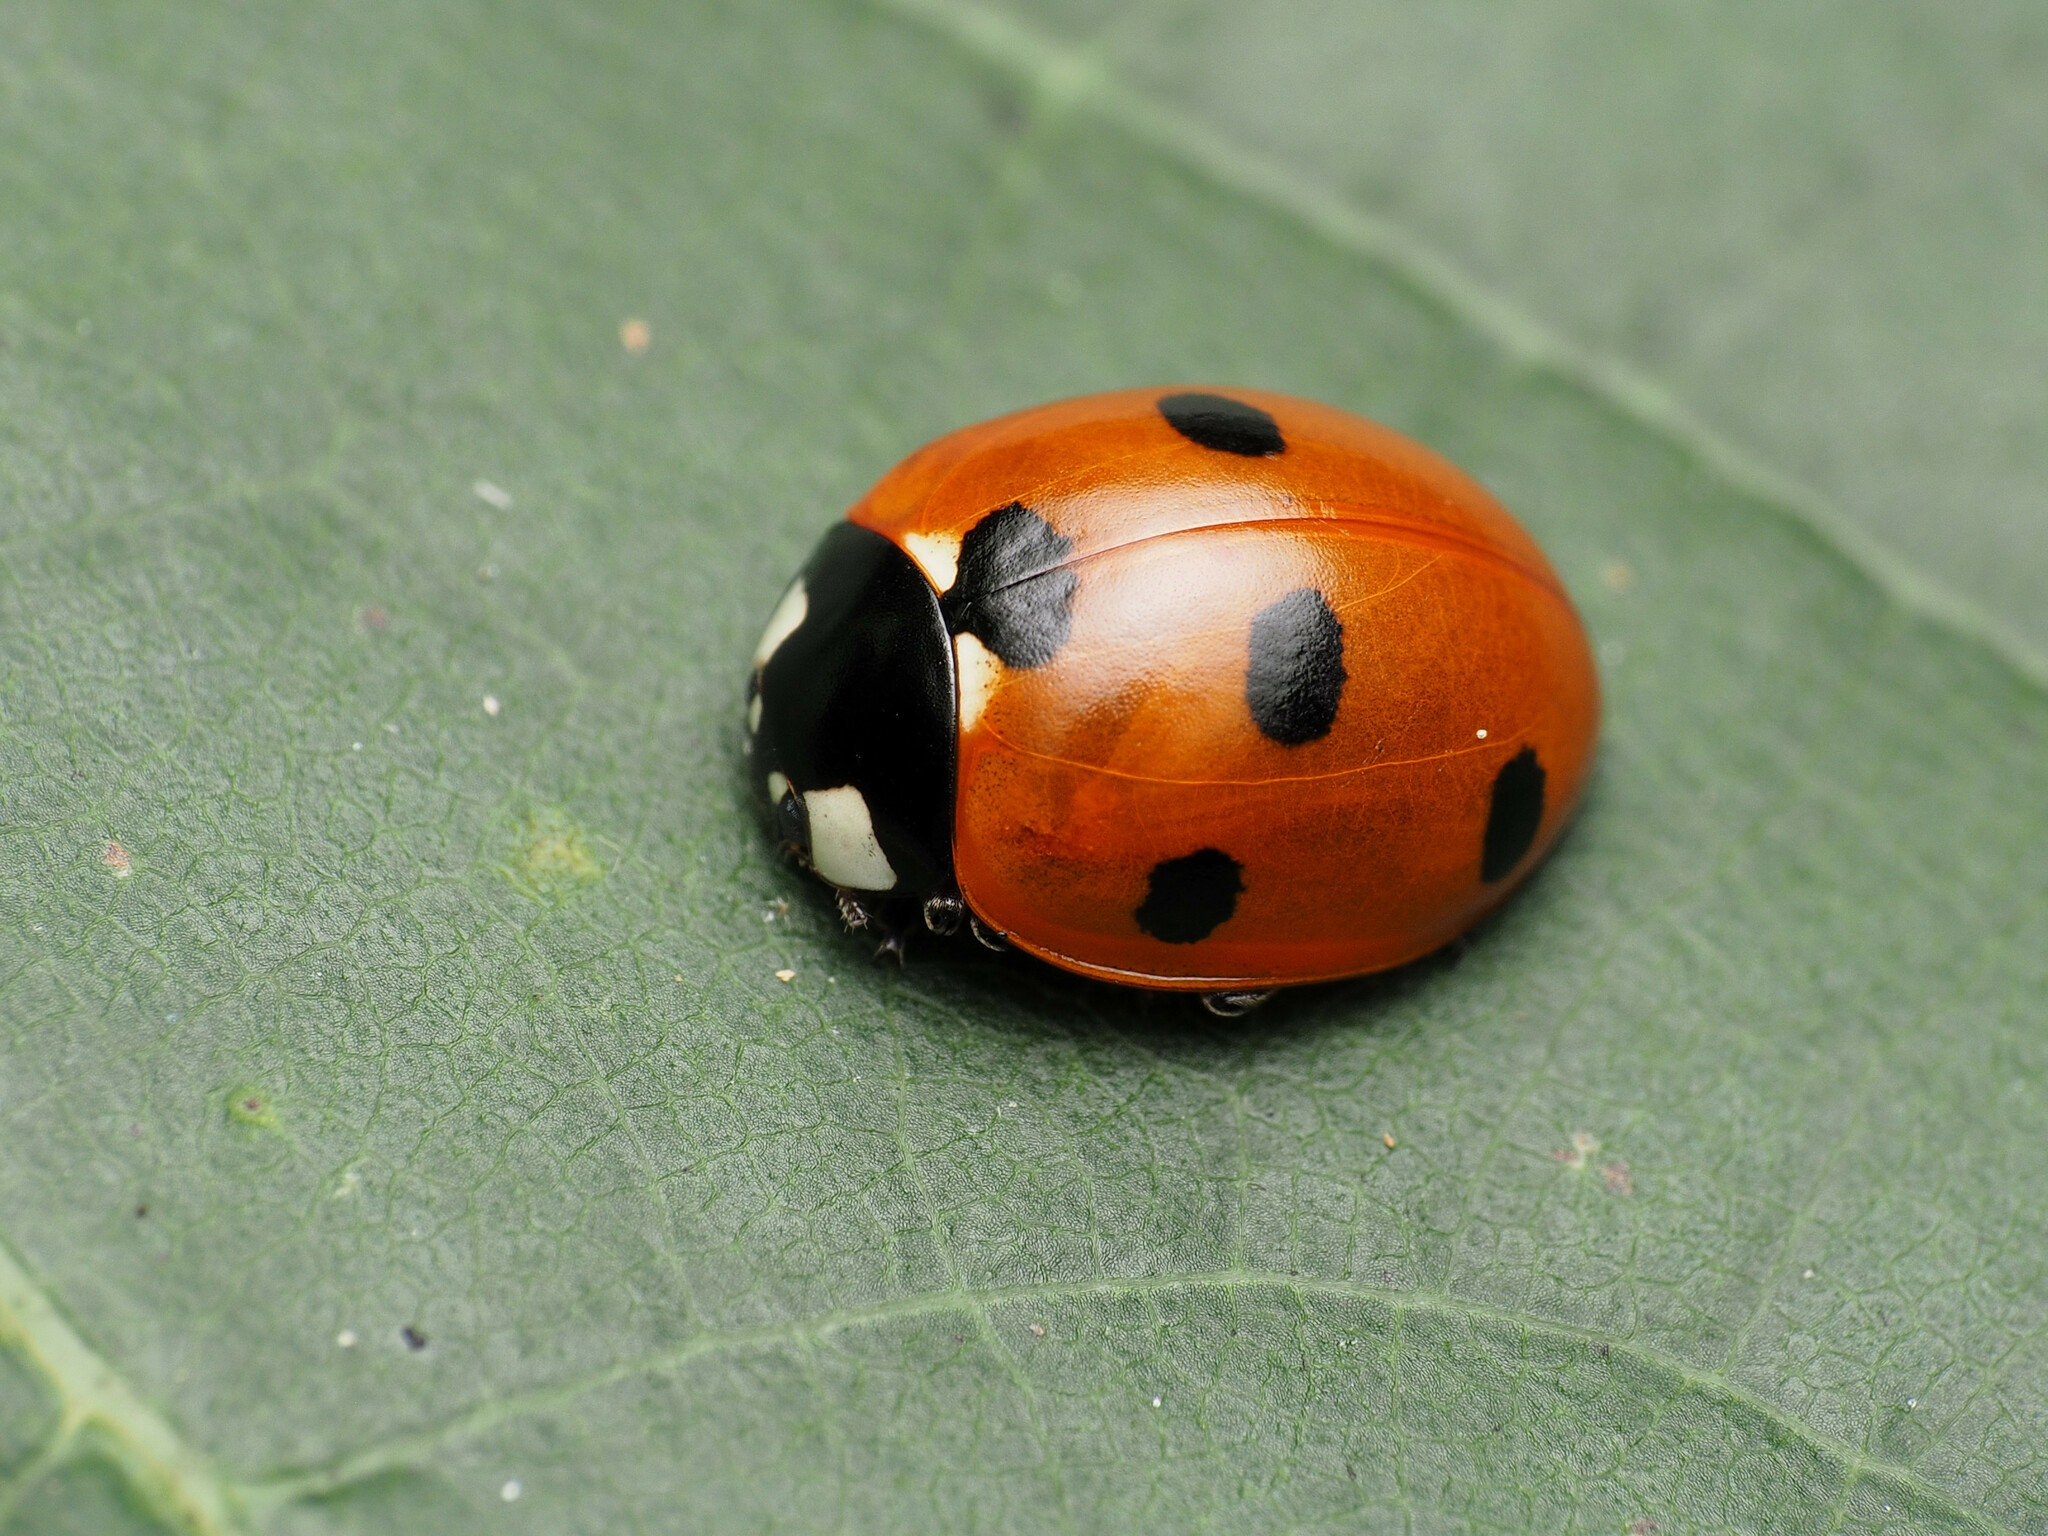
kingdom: Animalia
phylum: Arthropoda
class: Insecta
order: Coleoptera
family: Coccinellidae
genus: Coccinella
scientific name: Coccinella septempunctata
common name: Sevenspotted lady beetle
